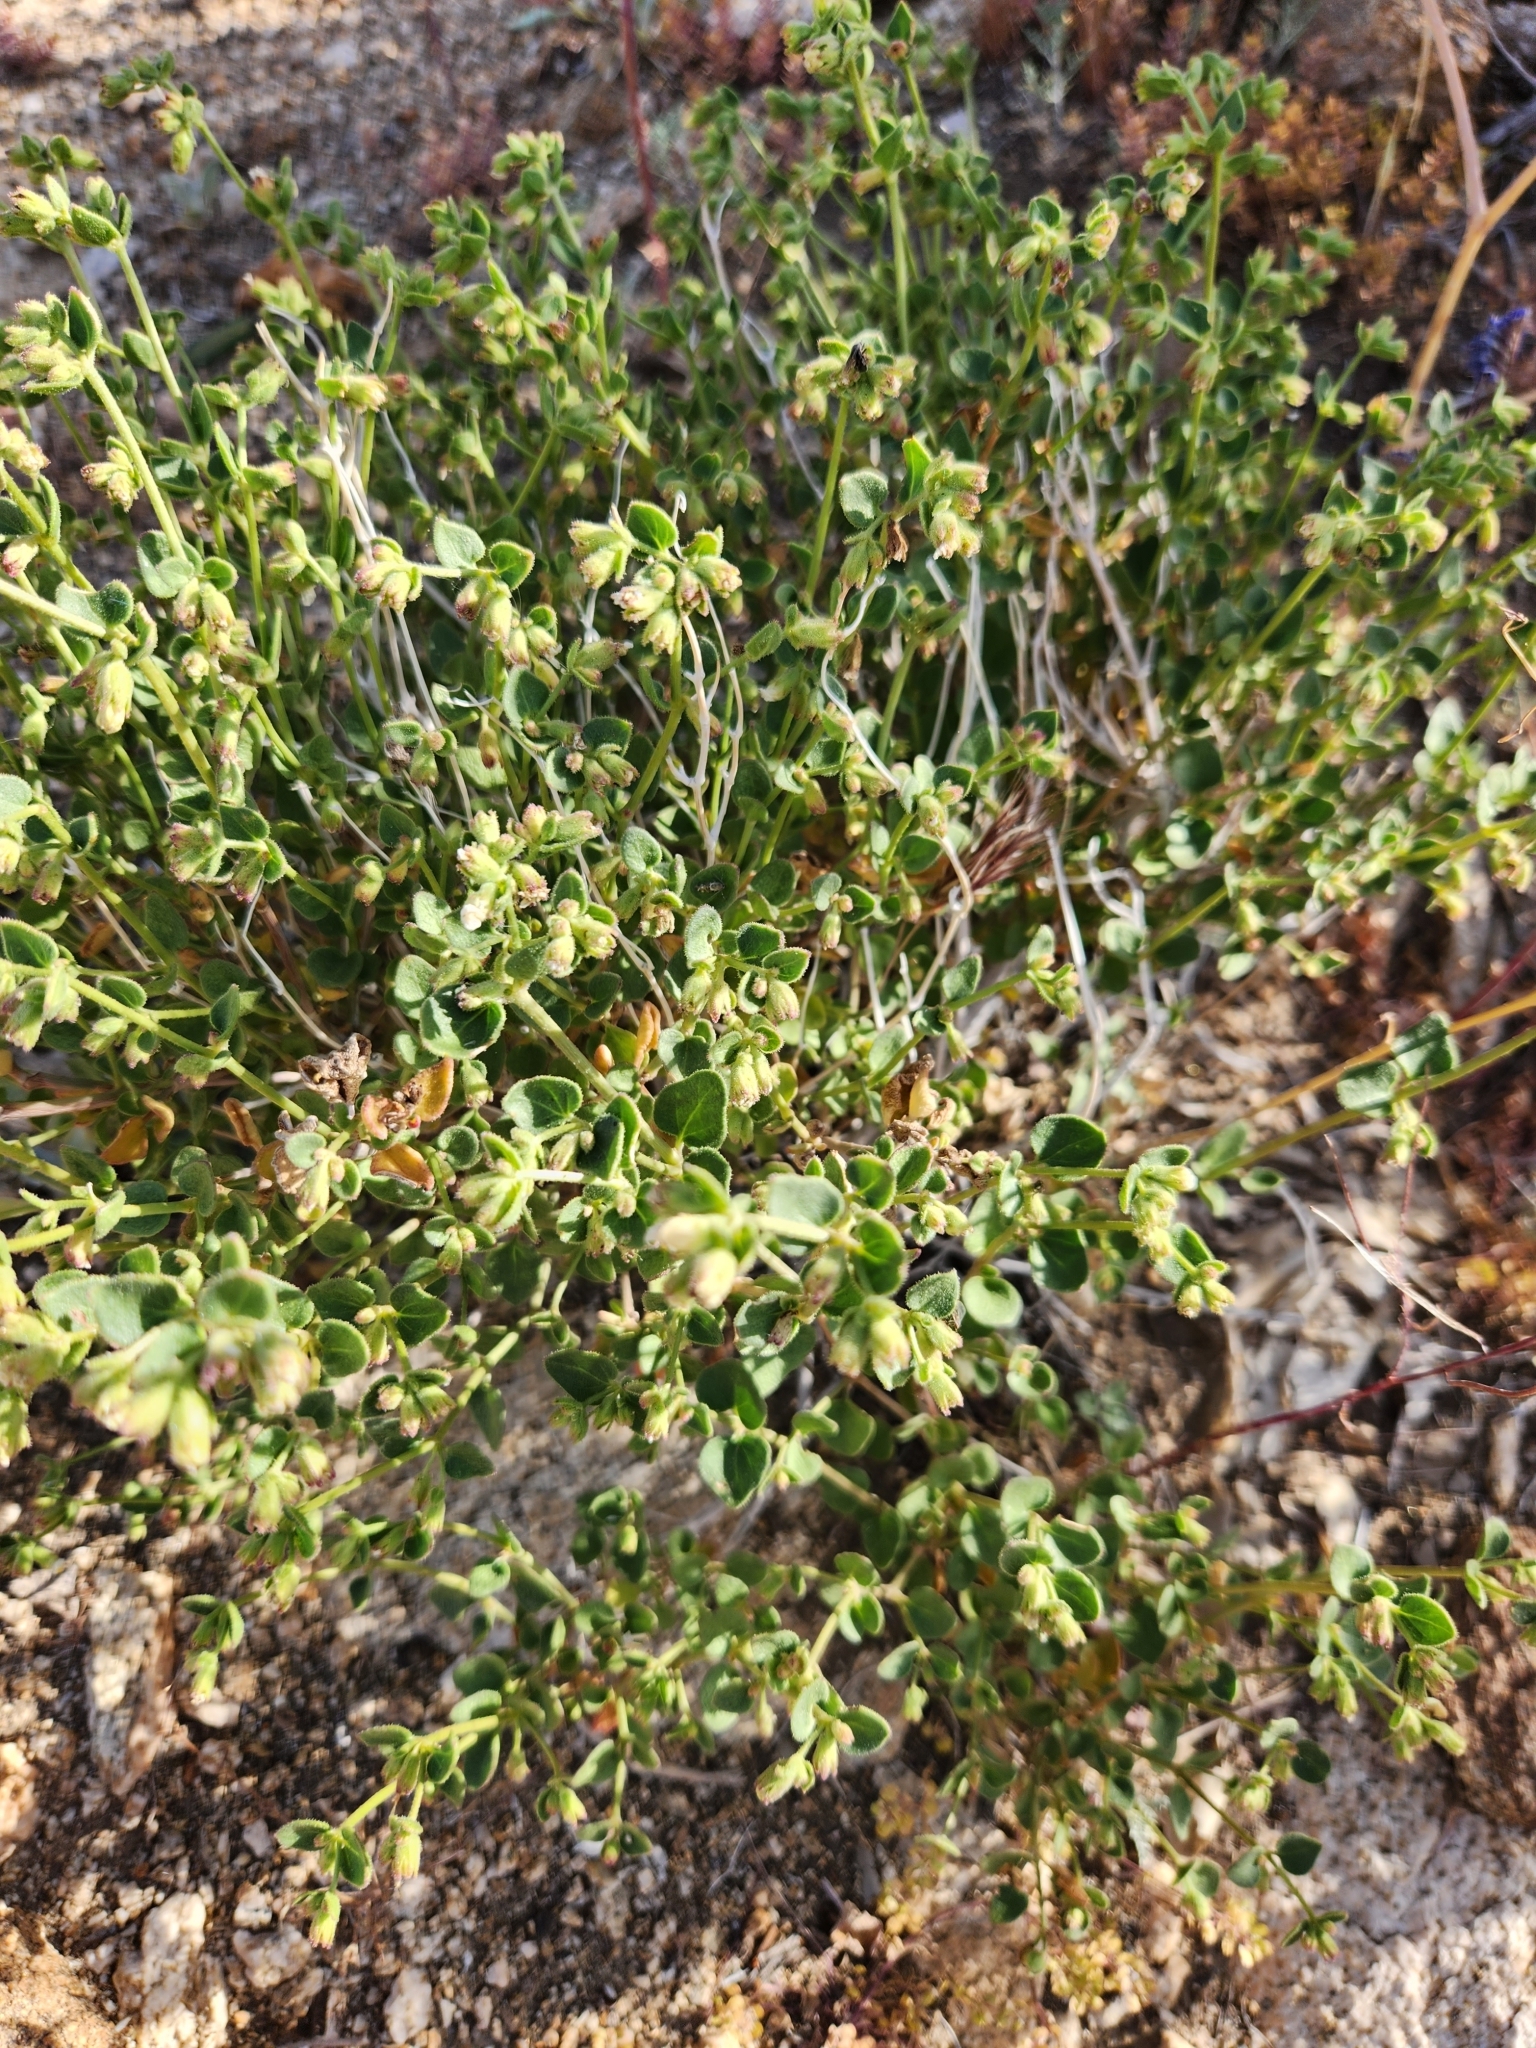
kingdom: Plantae
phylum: Tracheophyta
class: Magnoliopsida
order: Caryophyllales
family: Nyctaginaceae
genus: Mirabilis
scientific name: Mirabilis laevis
